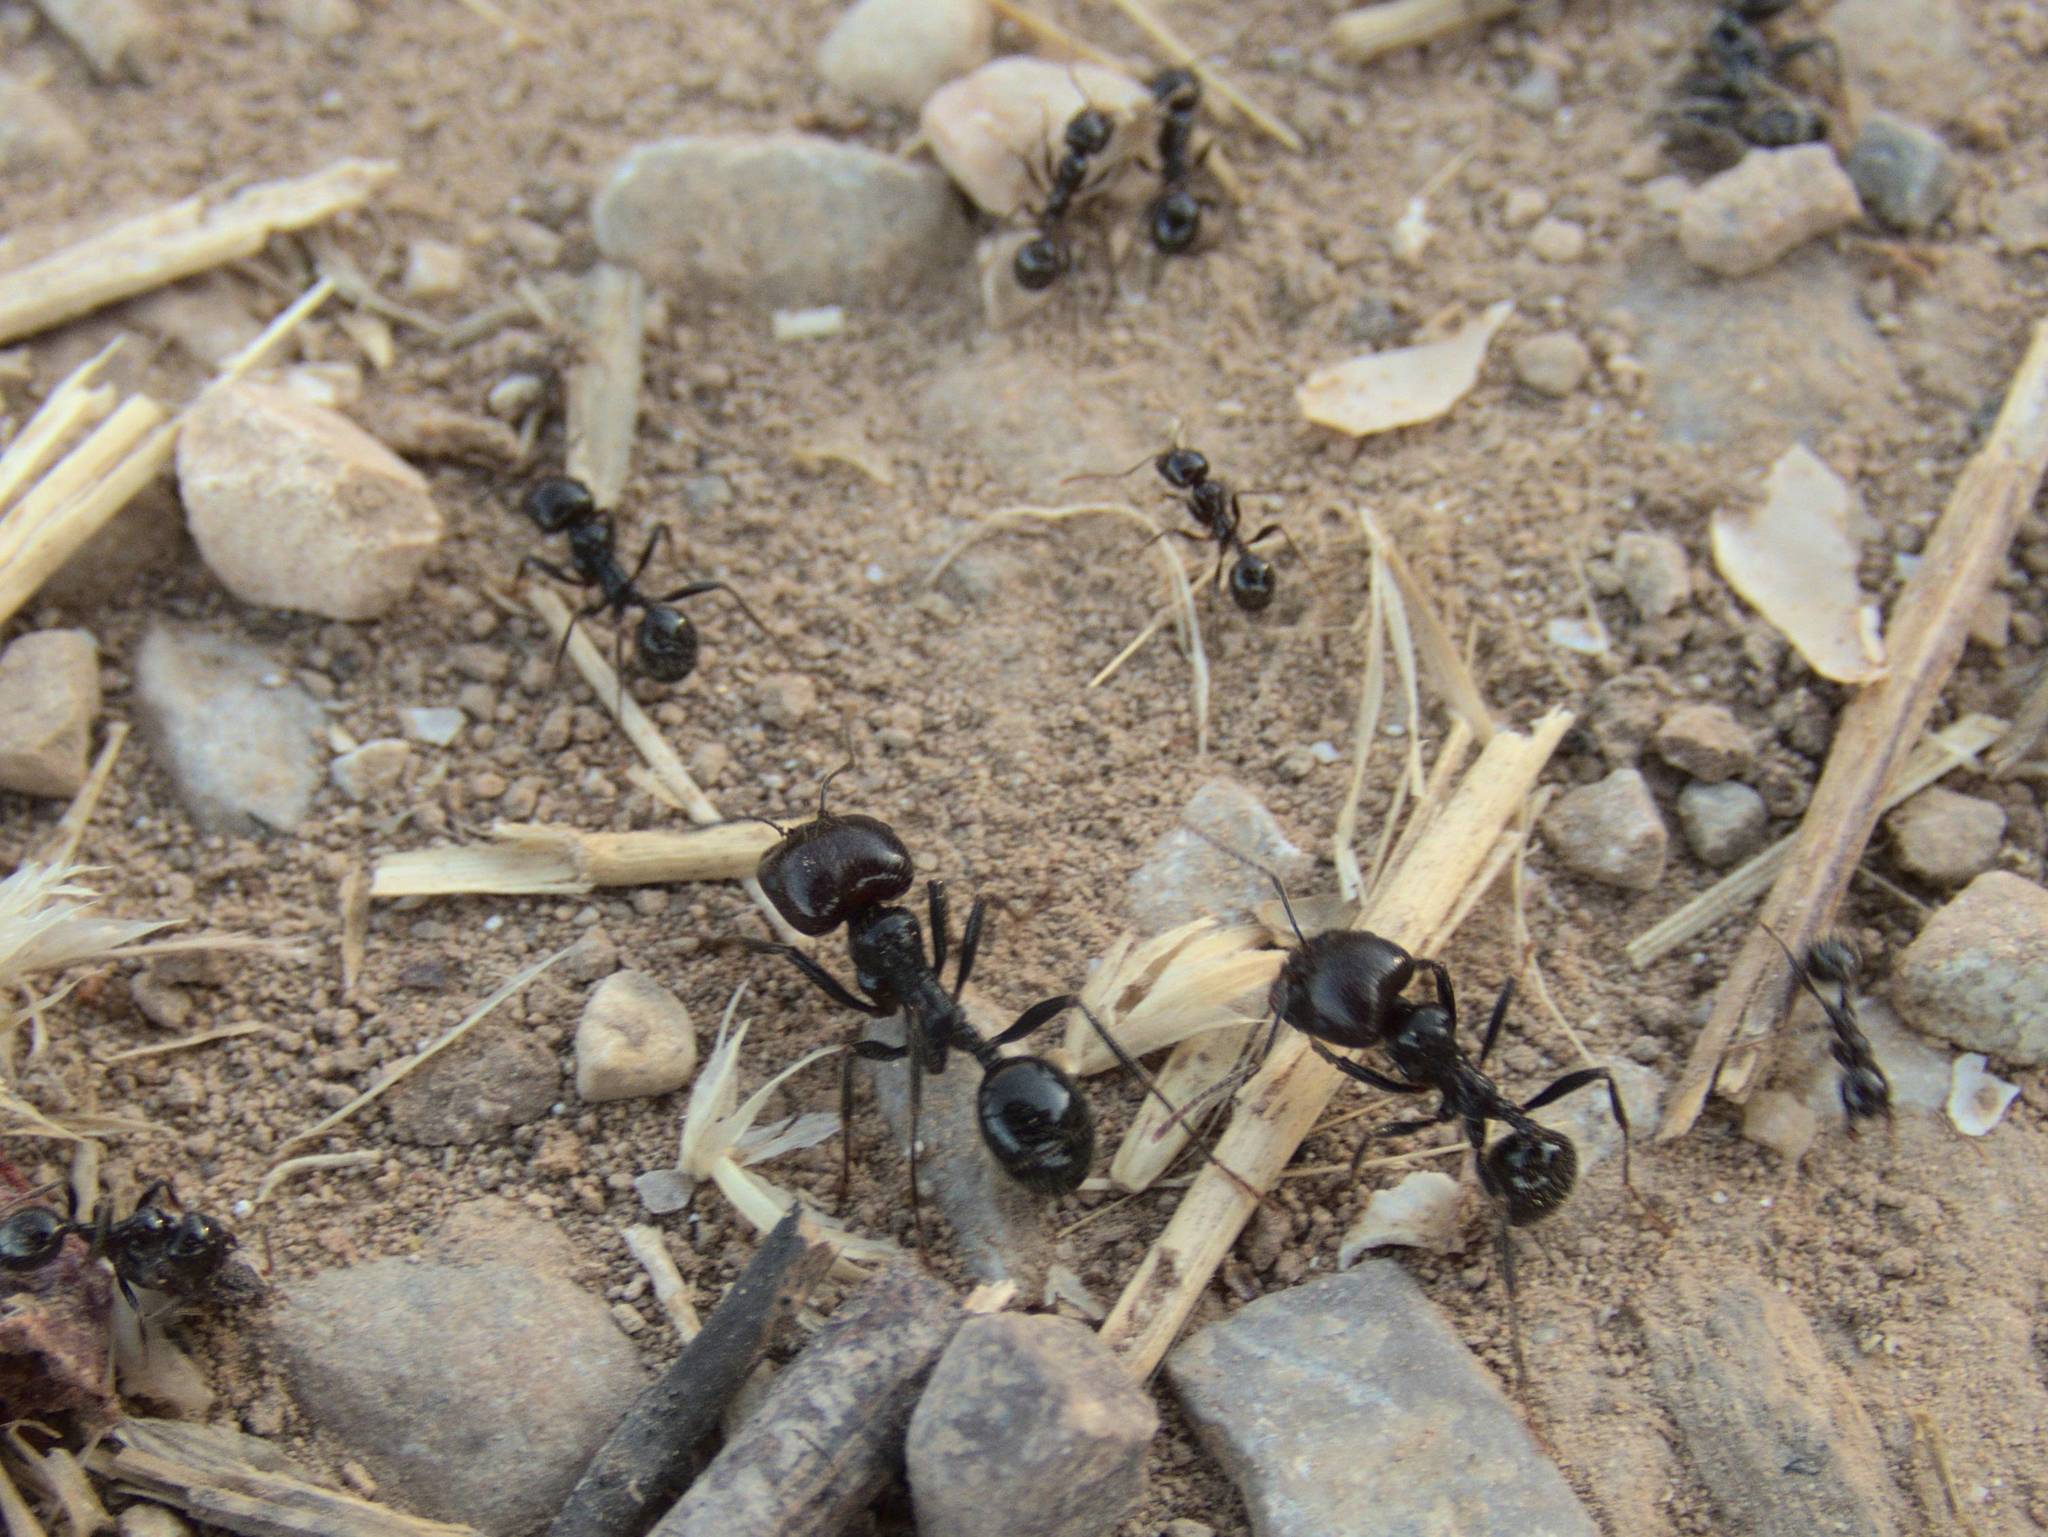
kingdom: Animalia
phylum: Arthropoda
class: Insecta
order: Hymenoptera
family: Formicidae
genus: Messor
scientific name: Messor barbarus
